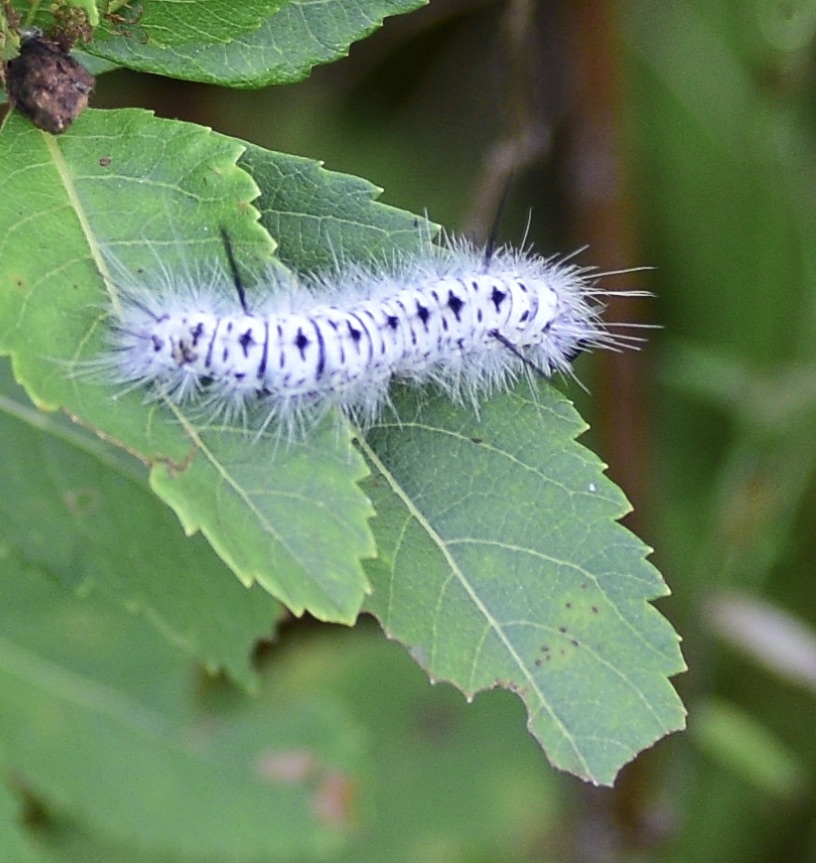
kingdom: Animalia
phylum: Arthropoda
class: Insecta
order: Lepidoptera
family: Erebidae
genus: Lophocampa
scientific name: Lophocampa caryae
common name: Hickory tussock moth
